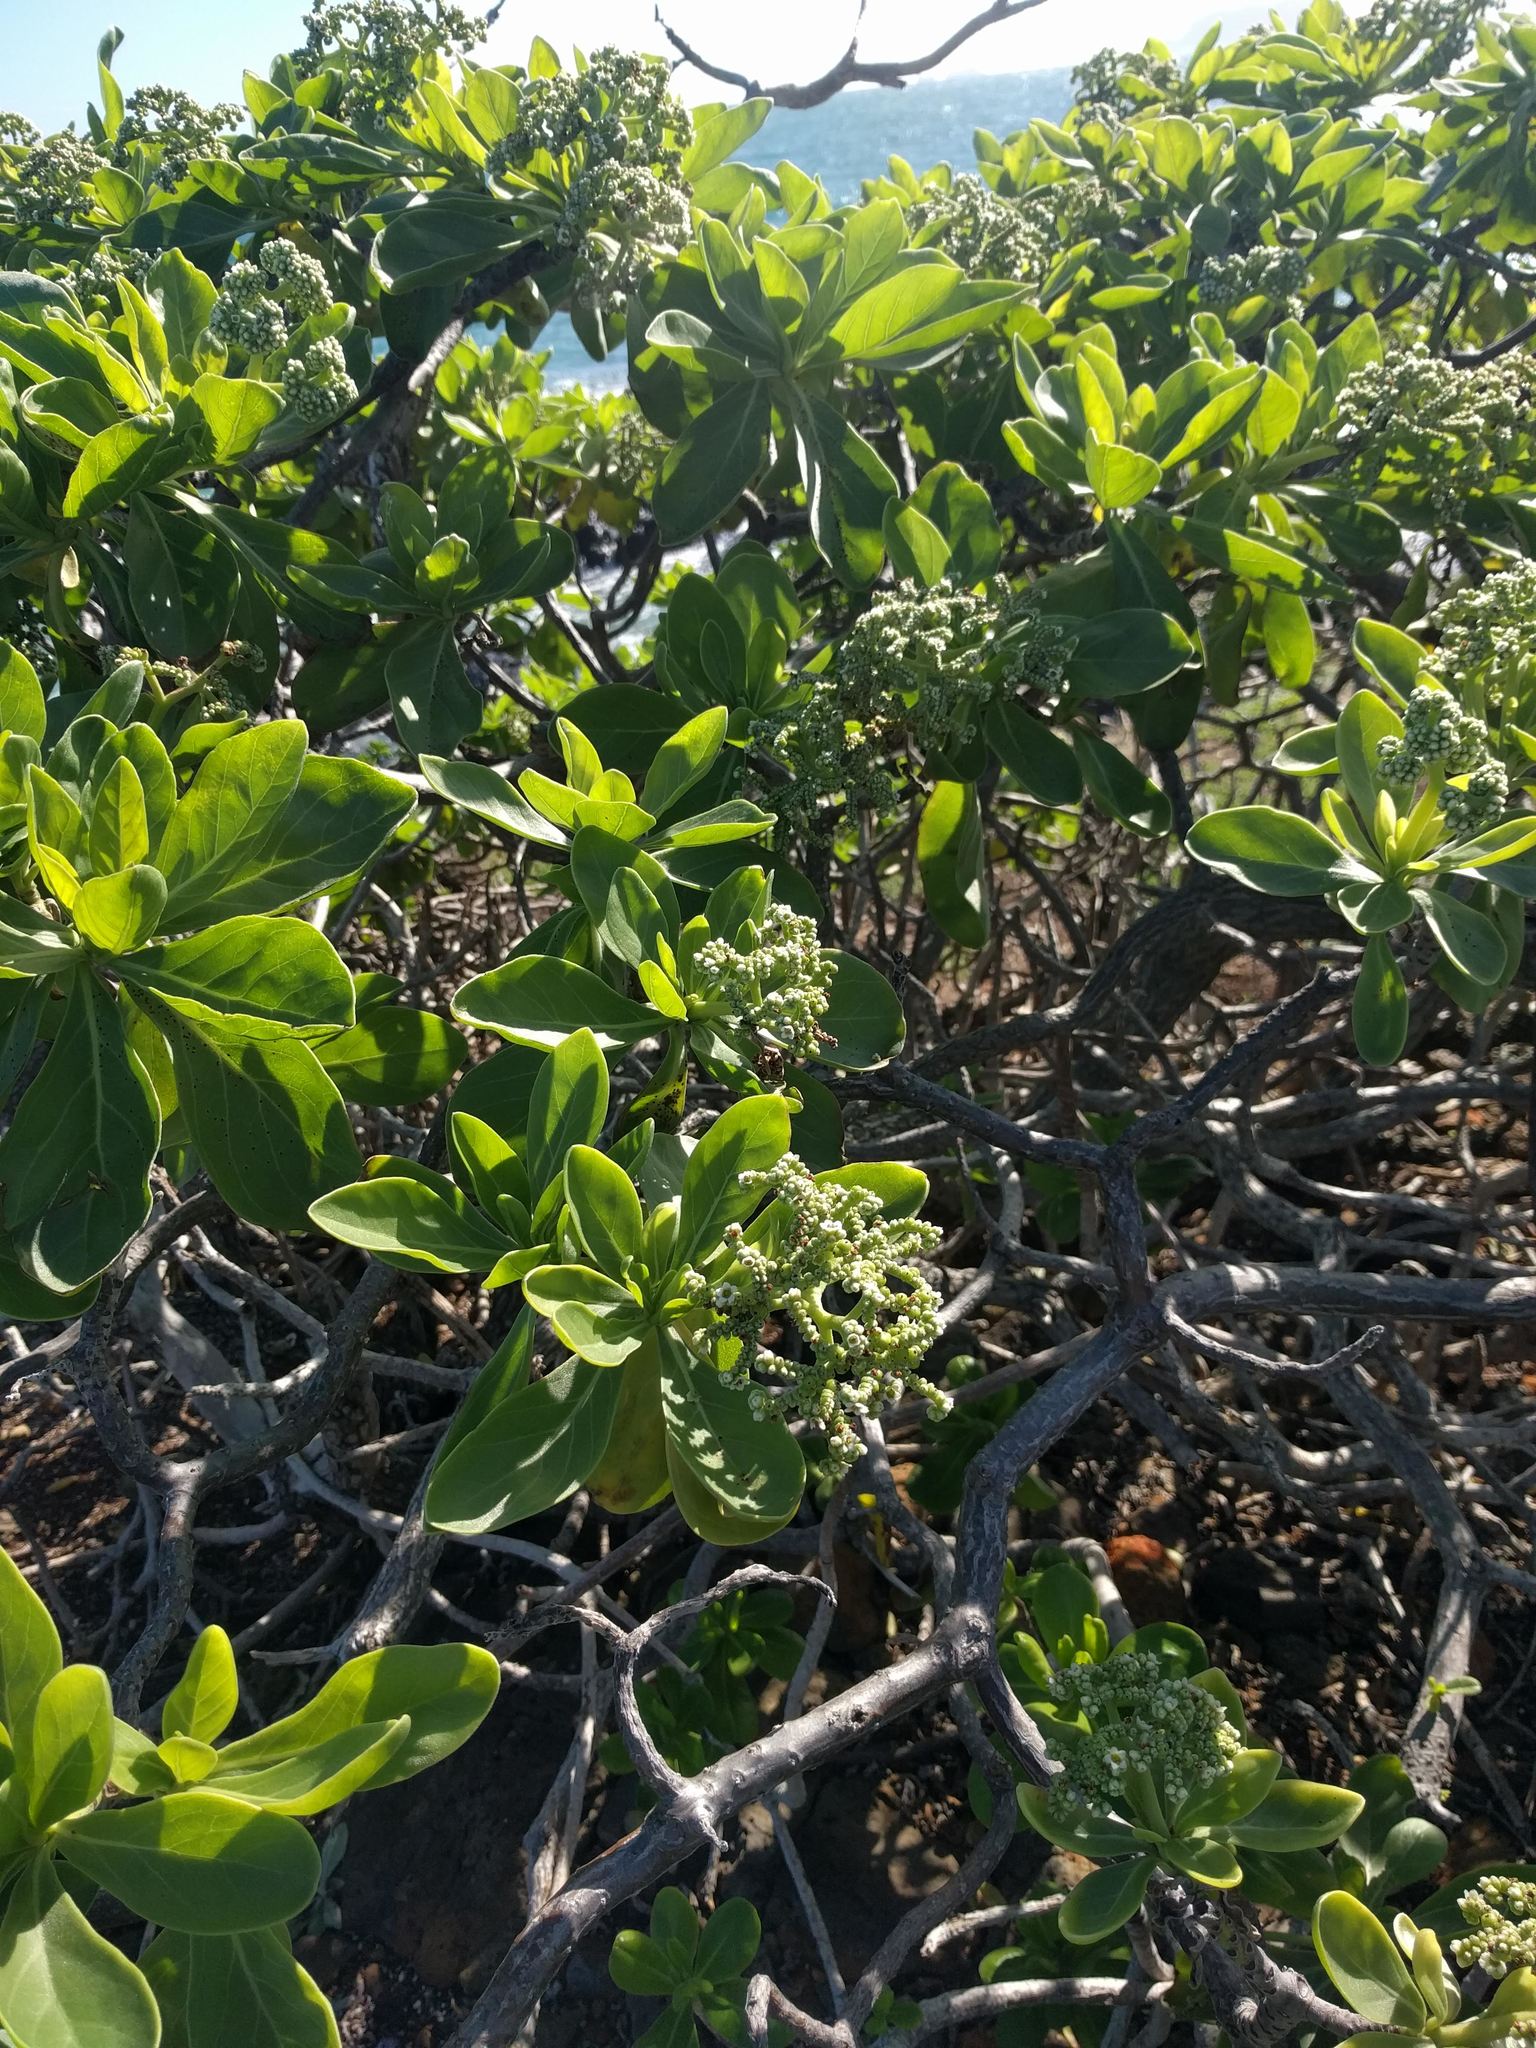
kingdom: Plantae
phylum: Tracheophyta
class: Magnoliopsida
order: Boraginales
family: Heliotropiaceae
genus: Heliotropium
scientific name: Heliotropium velutinum
